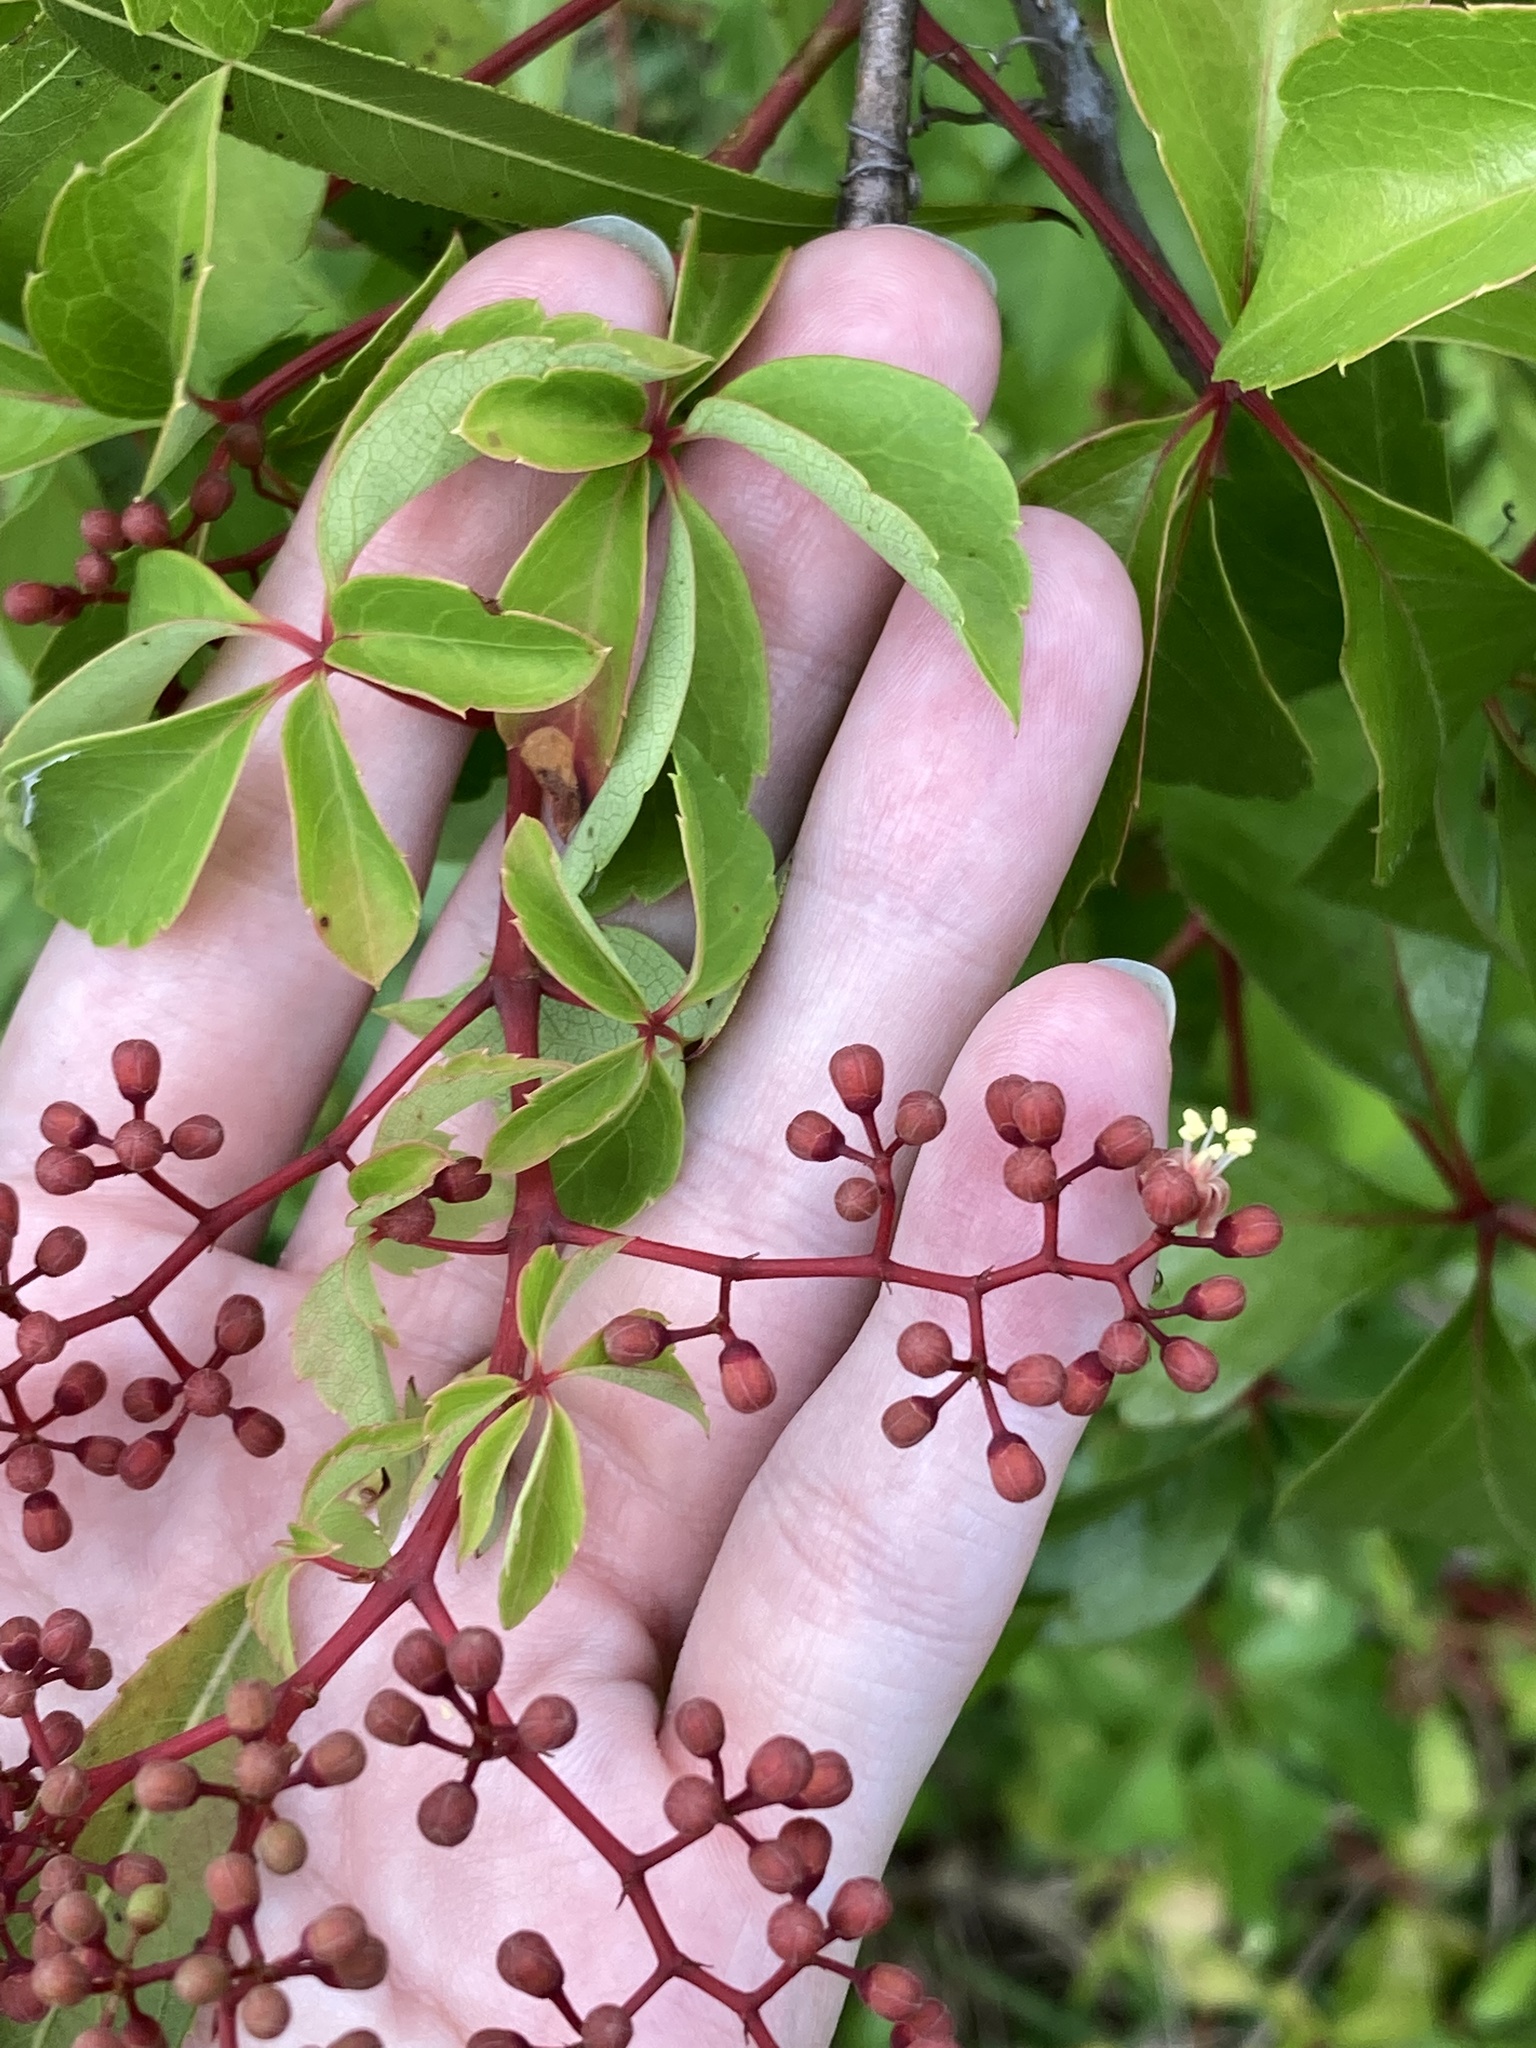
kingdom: Plantae
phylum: Tracheophyta
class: Magnoliopsida
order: Vitales
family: Vitaceae
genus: Parthenocissus
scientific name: Parthenocissus quinquefolia
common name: Virginia-creeper
